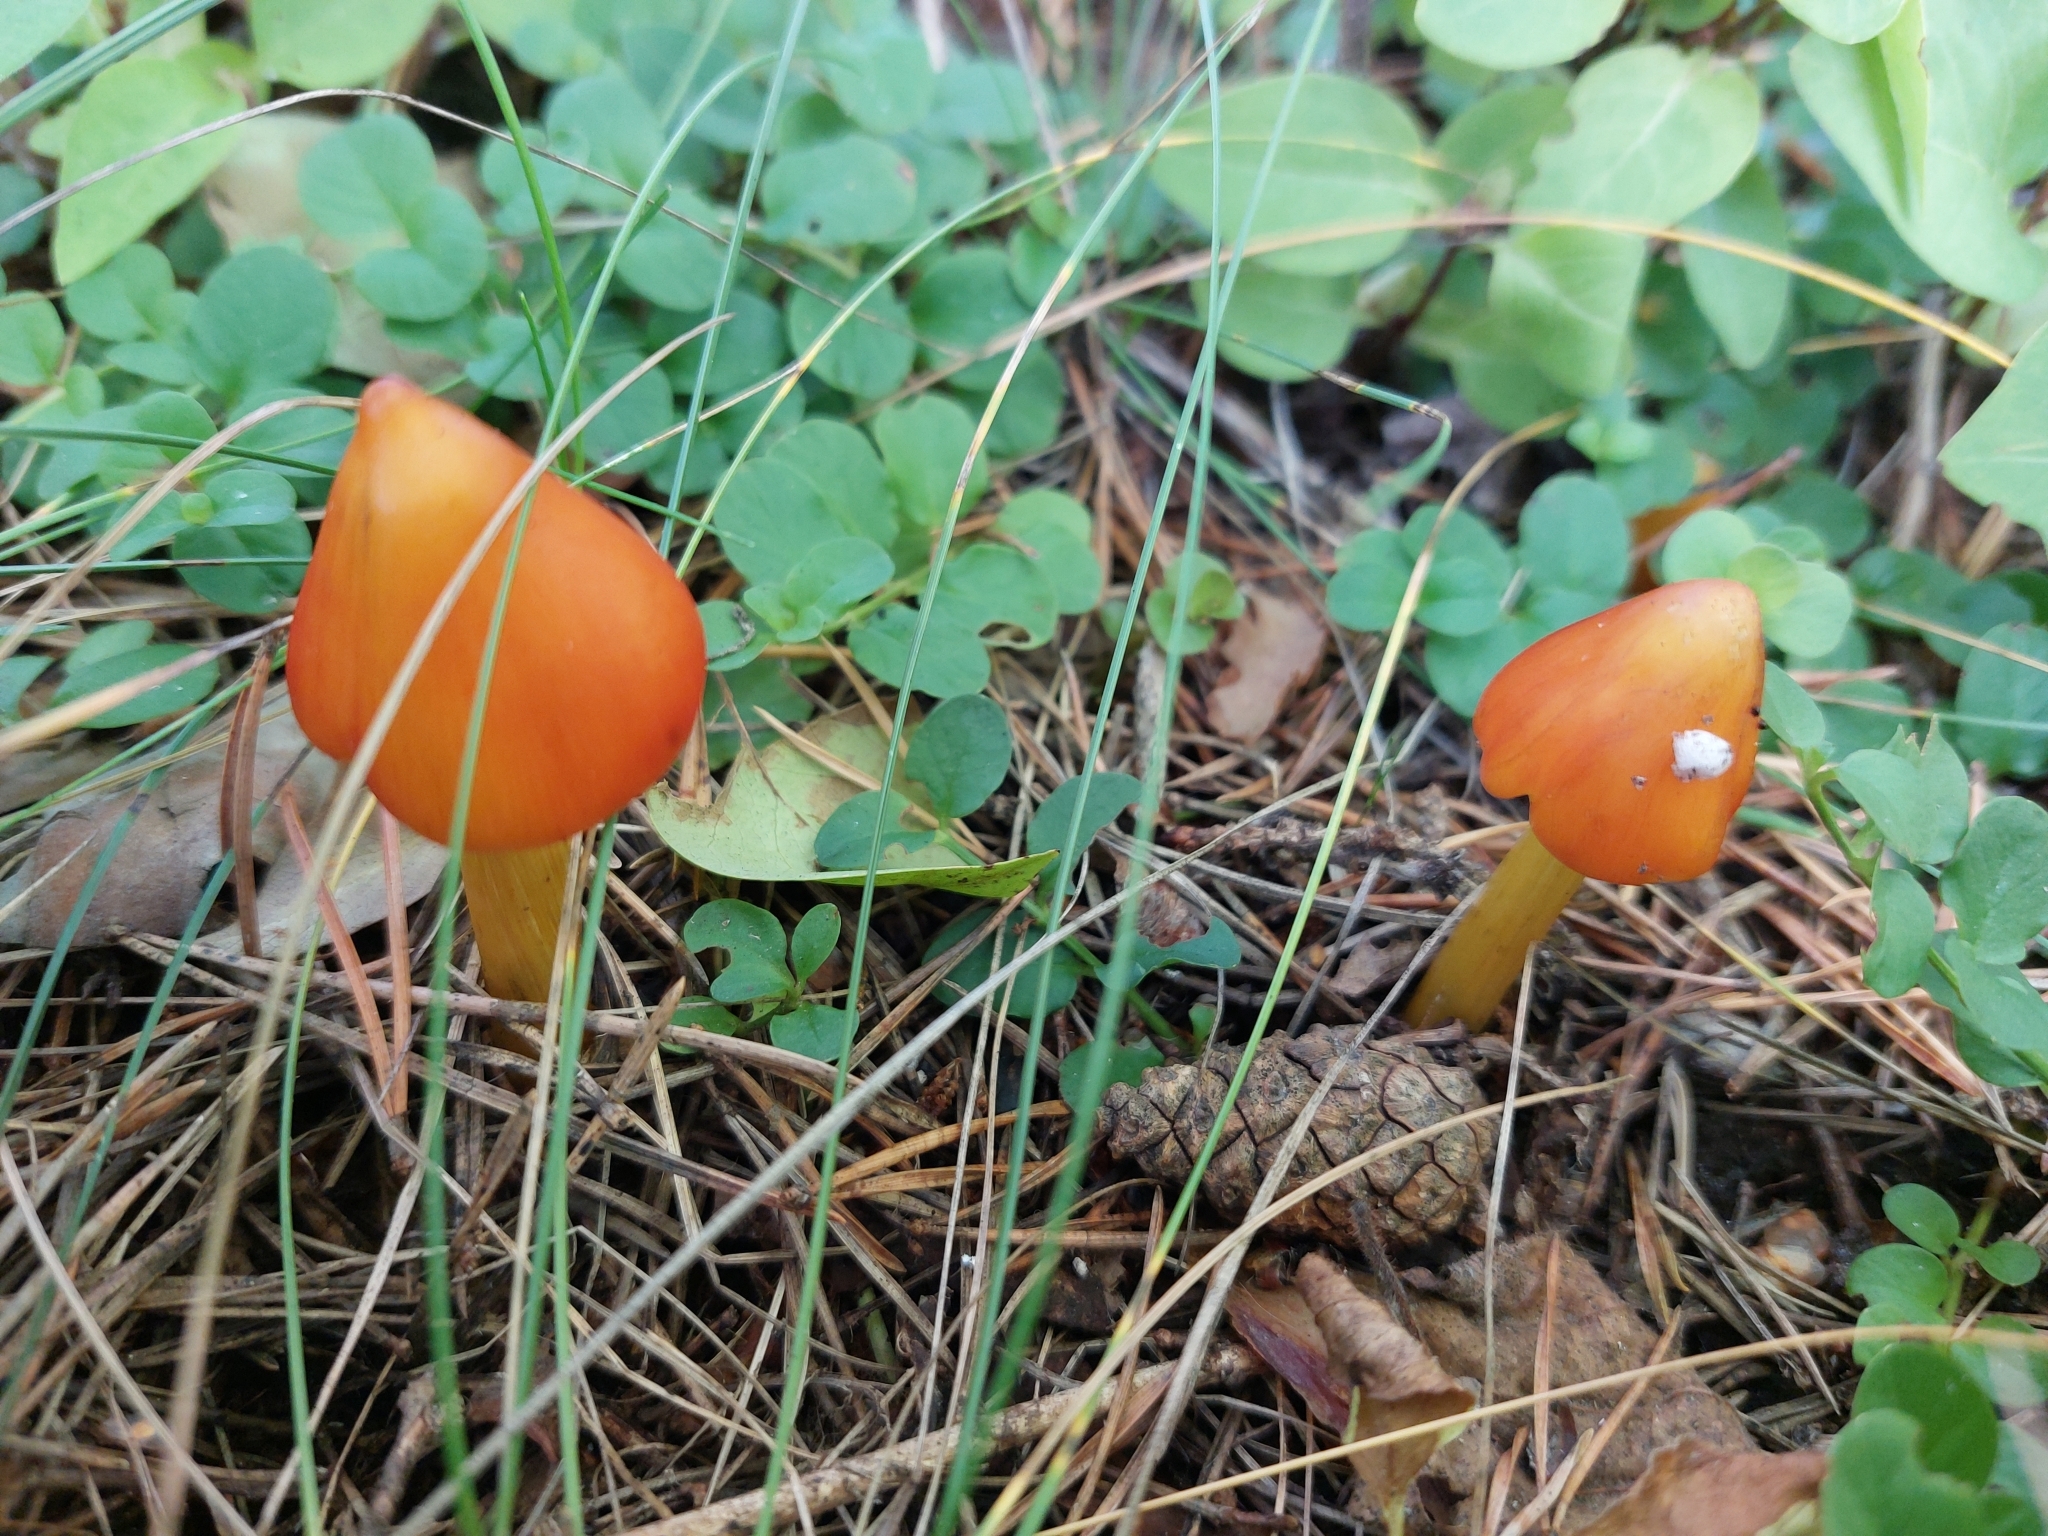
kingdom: Fungi
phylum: Basidiomycota
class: Agaricomycetes
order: Agaricales
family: Hygrophoraceae
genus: Hygrocybe
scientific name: Hygrocybe conica
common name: Blackening wax-cap
